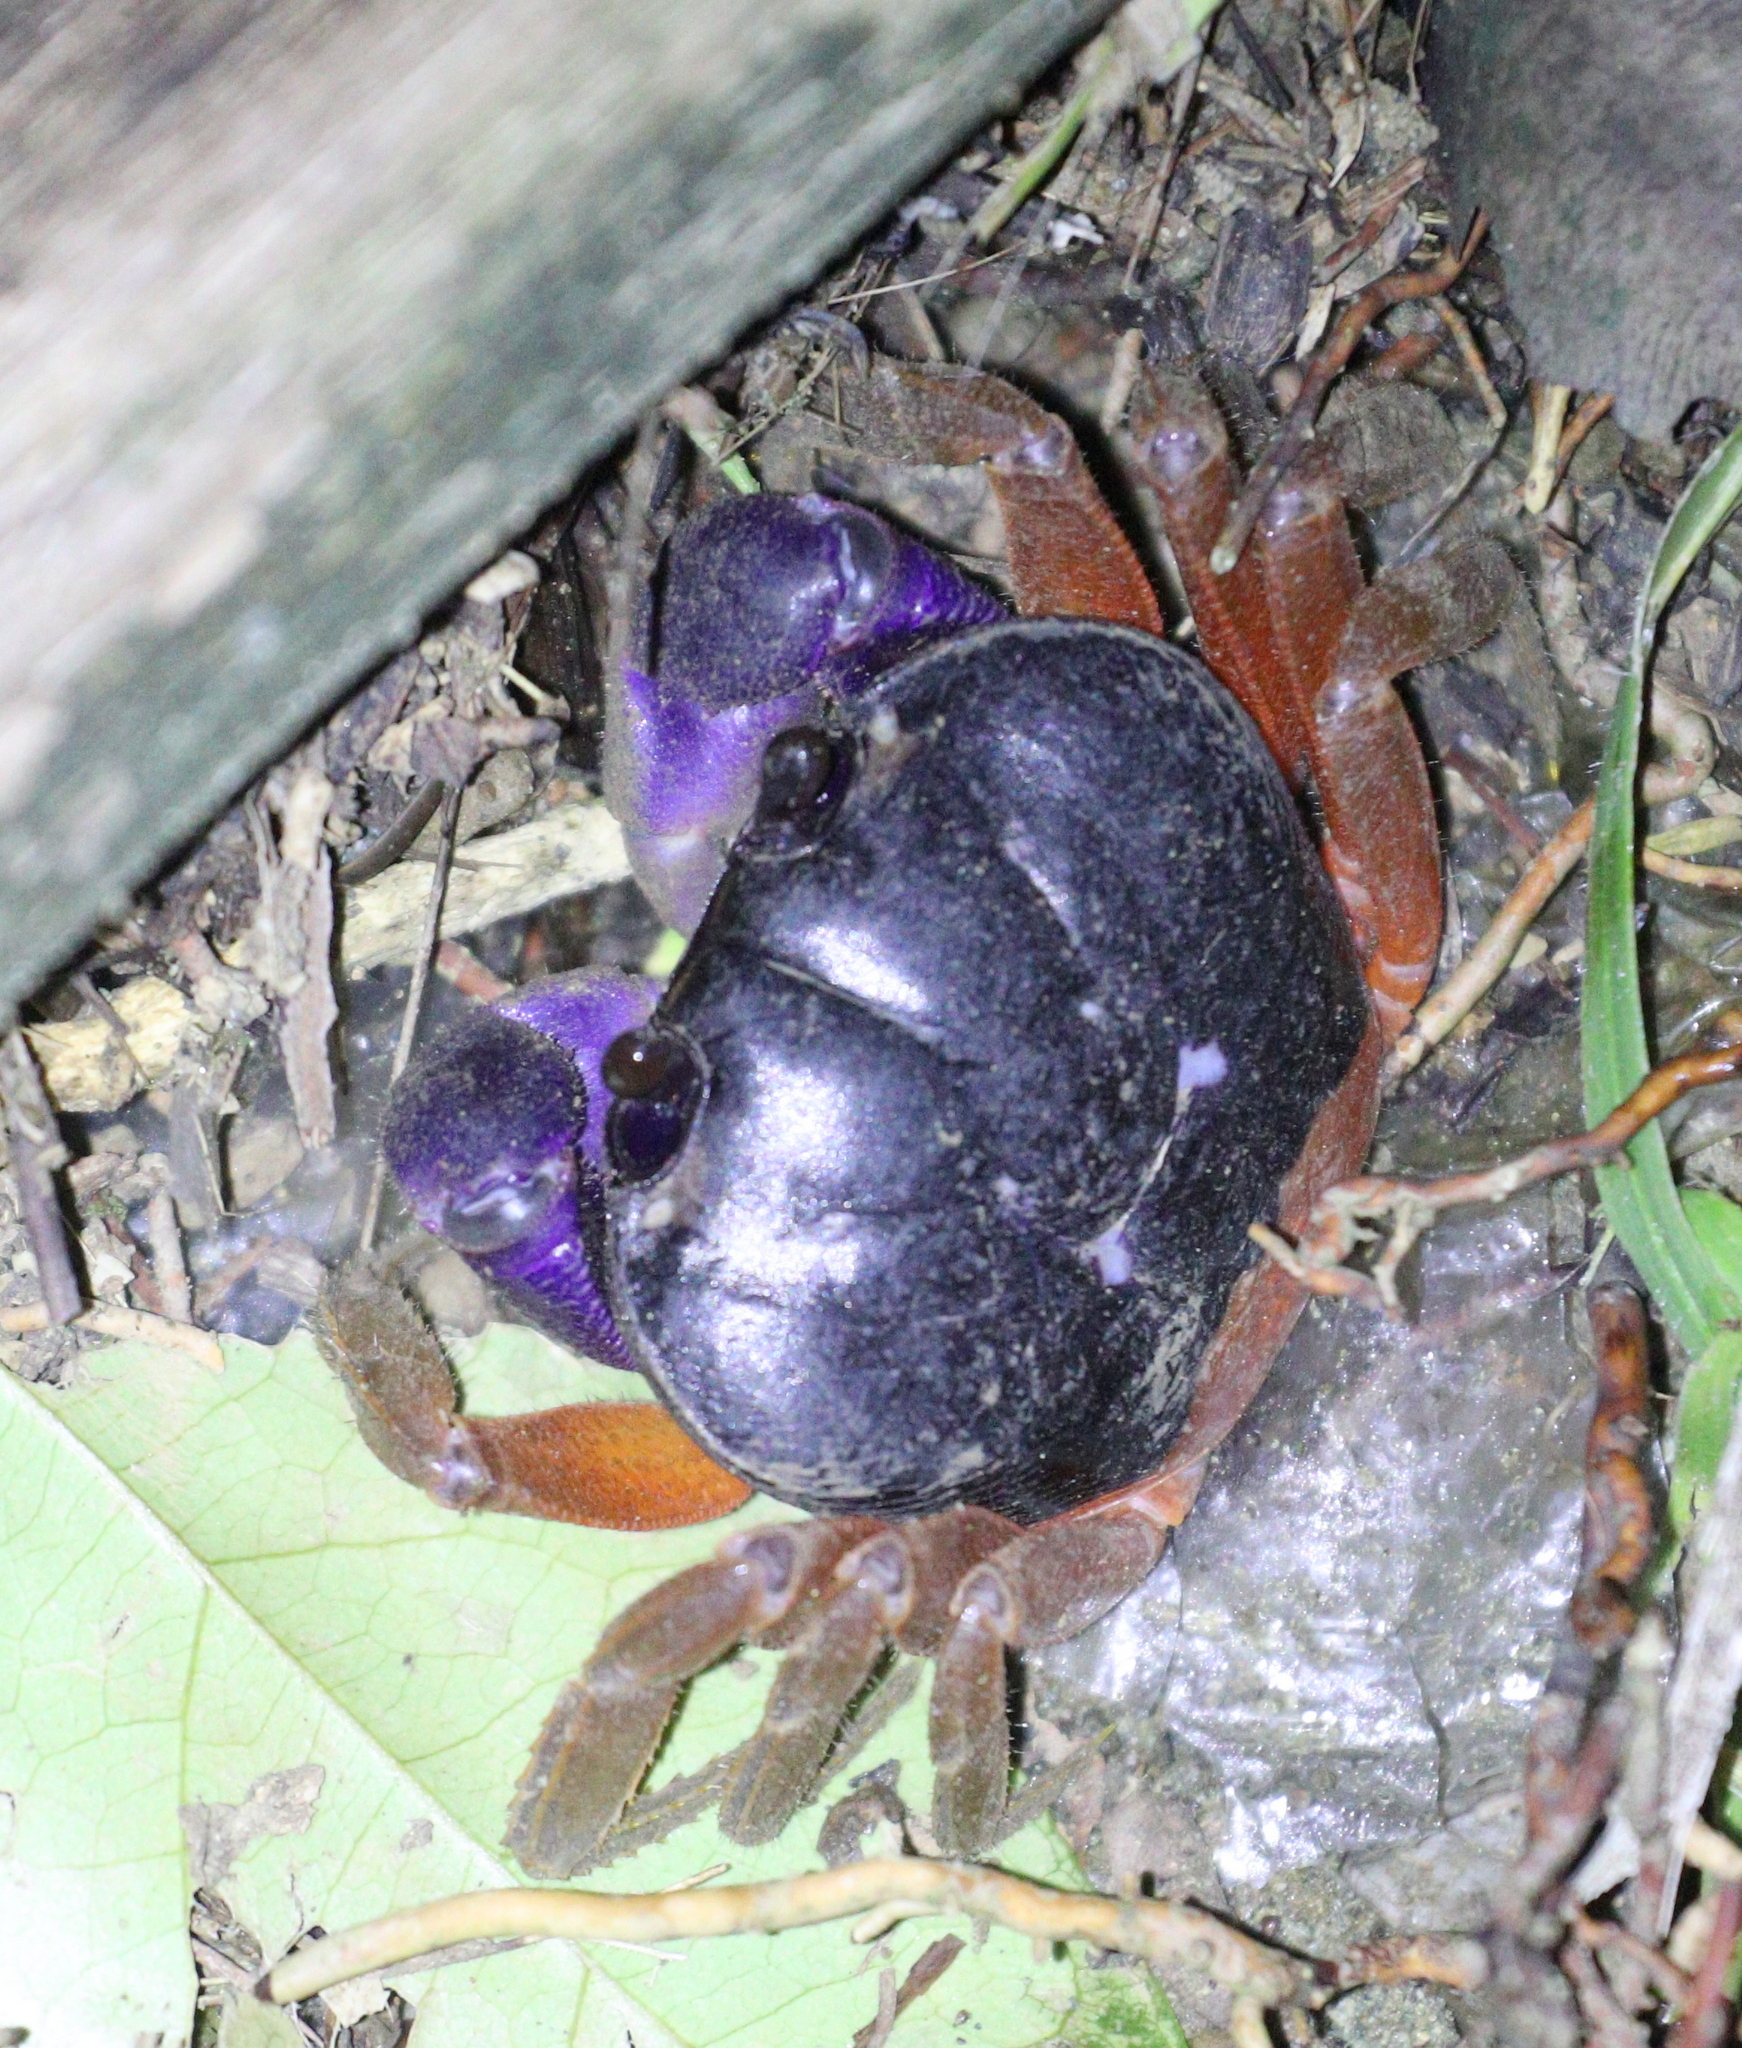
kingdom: Animalia
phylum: Arthropoda
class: Malacostraca
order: Decapoda
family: Gecarcinidae
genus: Gecarcinus
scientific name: Gecarcinus quadratus
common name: Halloween crab
